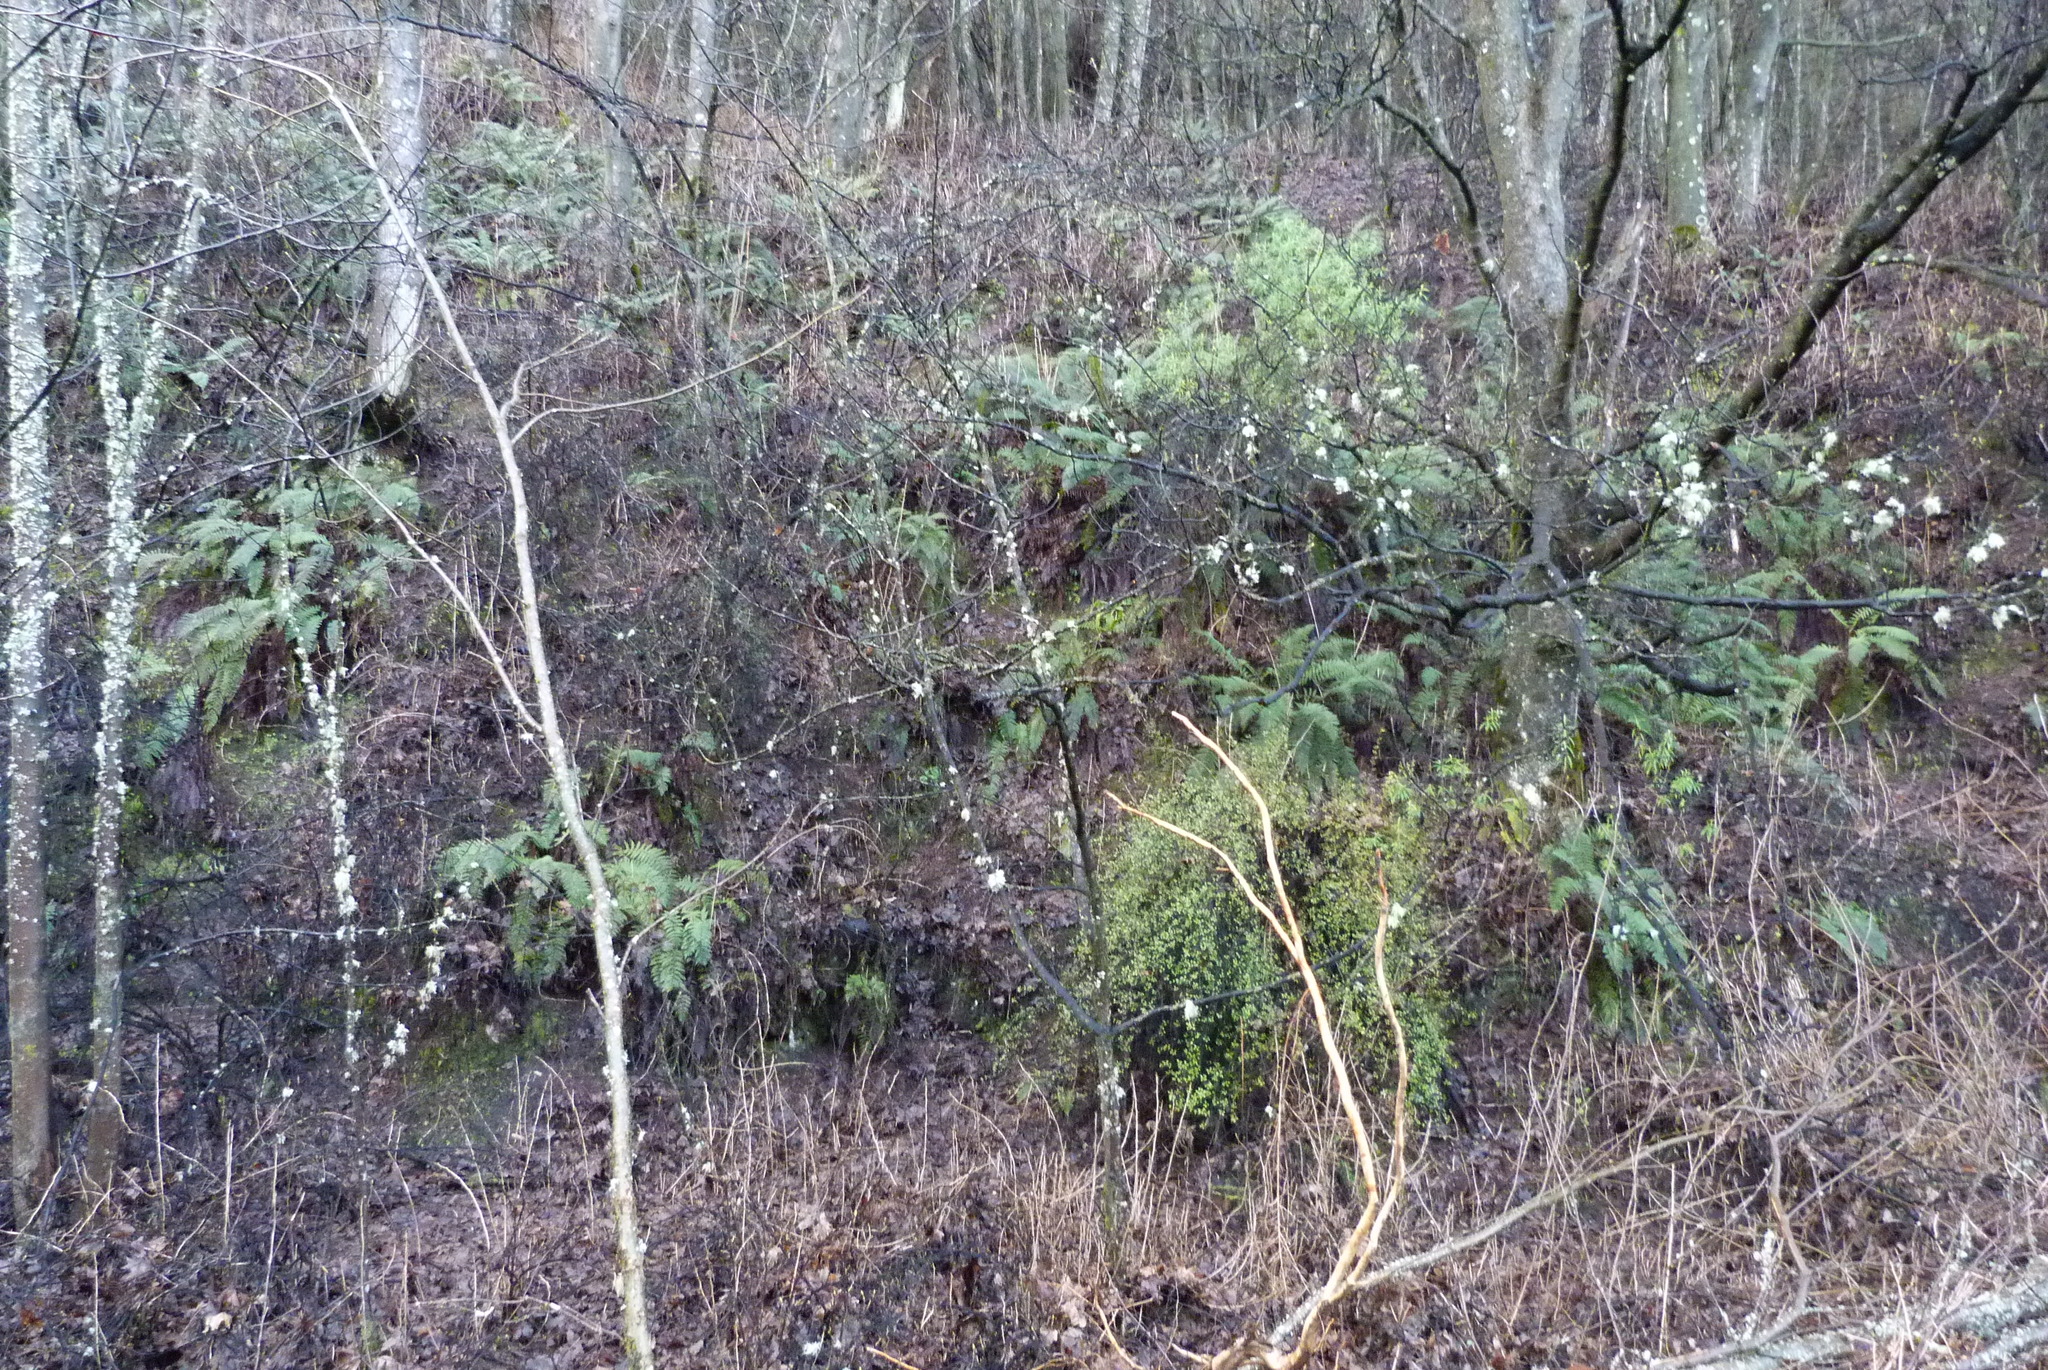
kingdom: Plantae
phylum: Tracheophyta
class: Magnoliopsida
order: Oxalidales
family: Elaeocarpaceae
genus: Aristotelia
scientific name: Aristotelia
